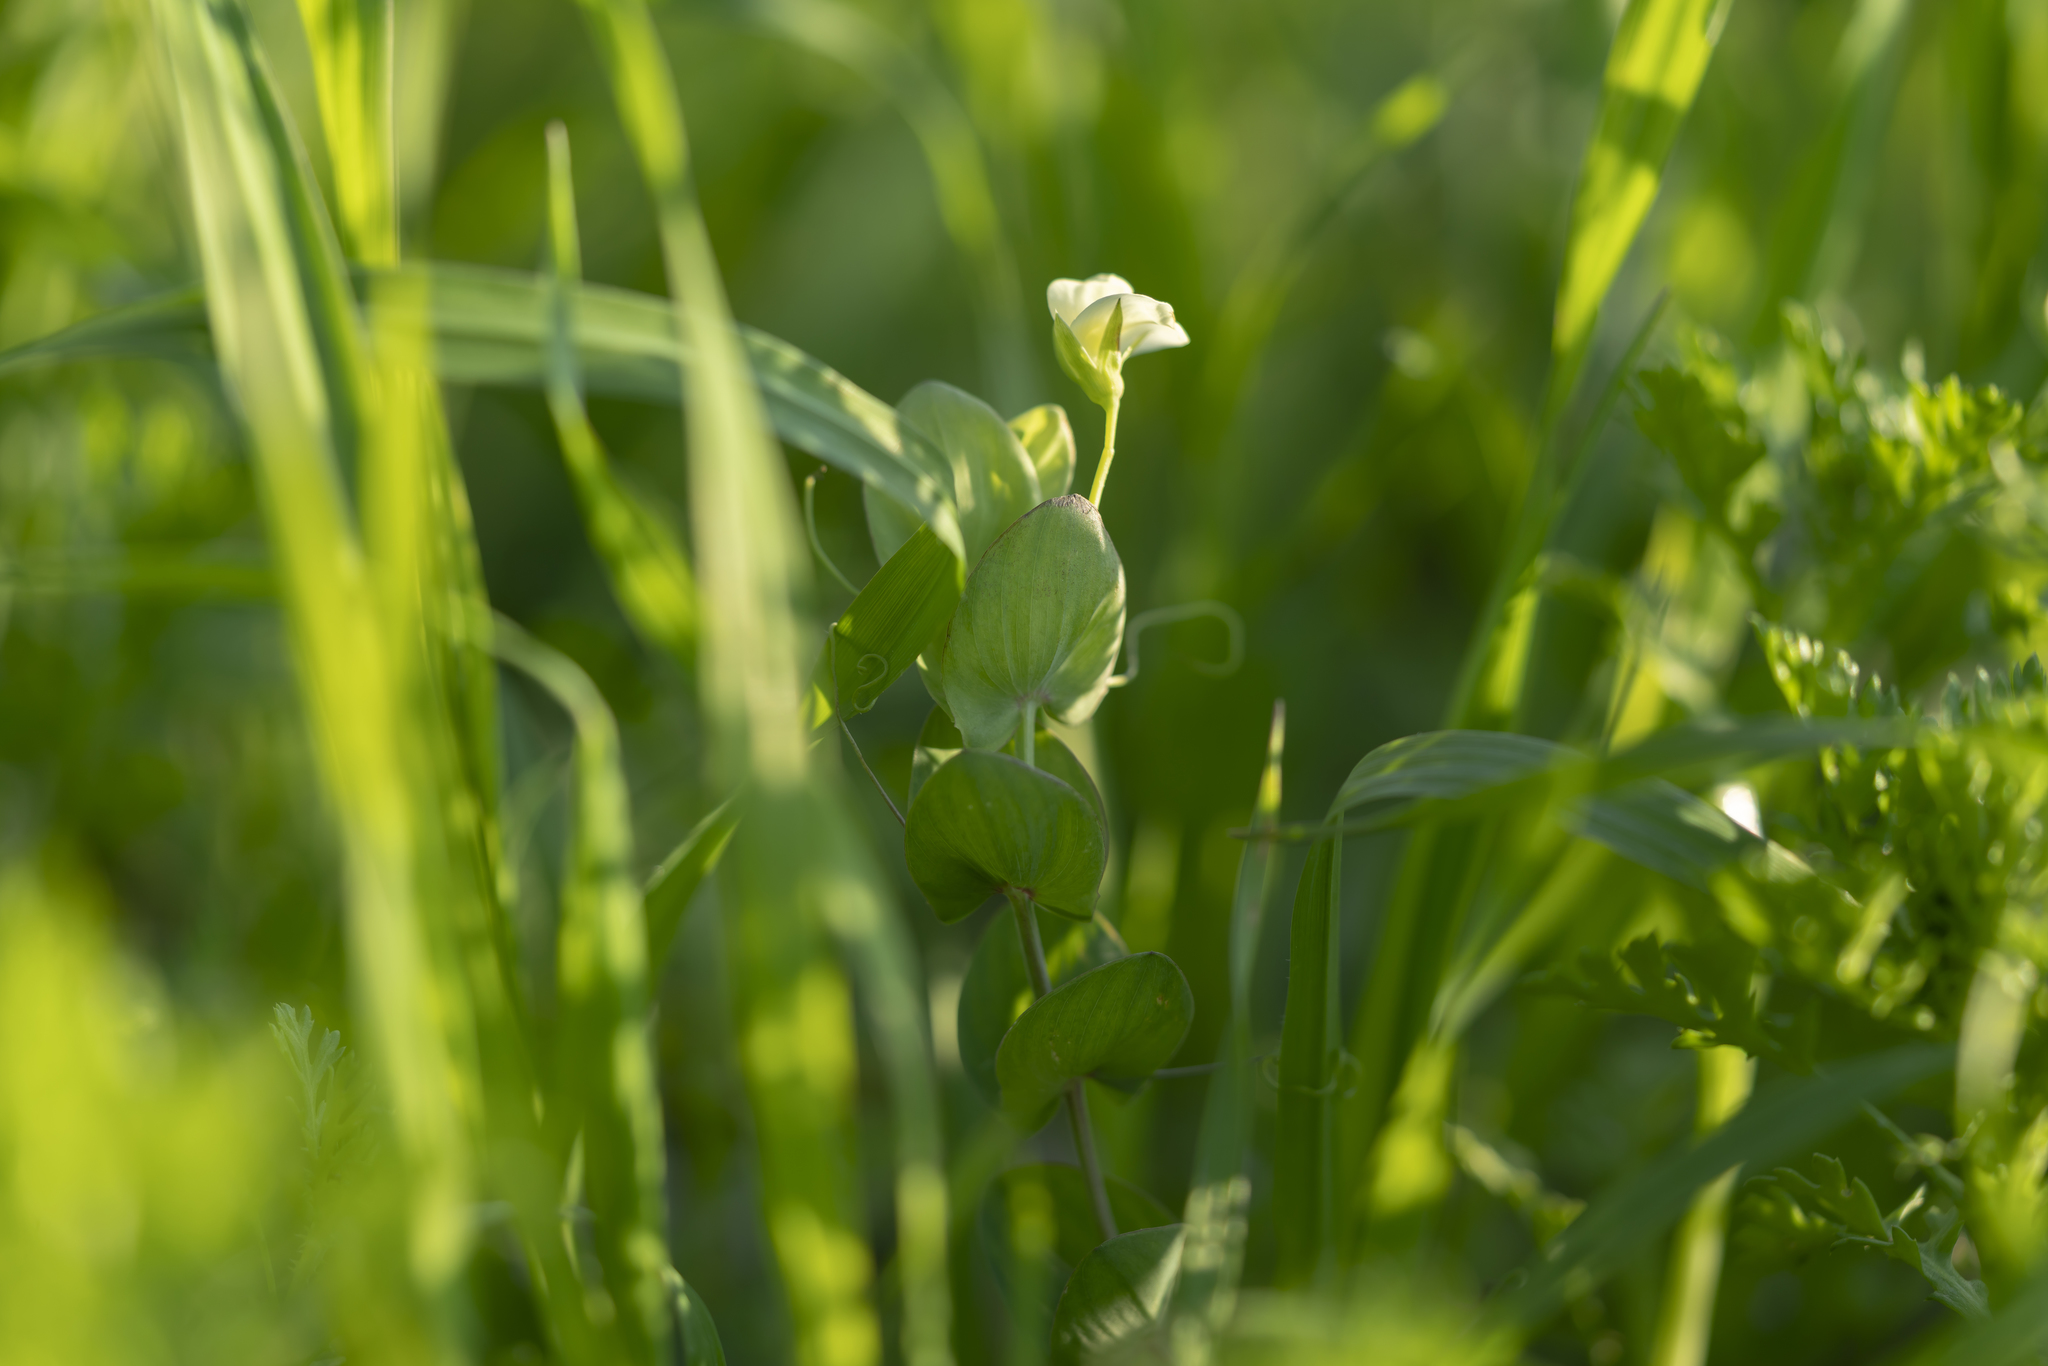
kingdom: Plantae
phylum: Tracheophyta
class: Magnoliopsida
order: Fabales
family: Fabaceae
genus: Lathyrus
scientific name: Lathyrus aphaca
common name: Yellow vetchling
